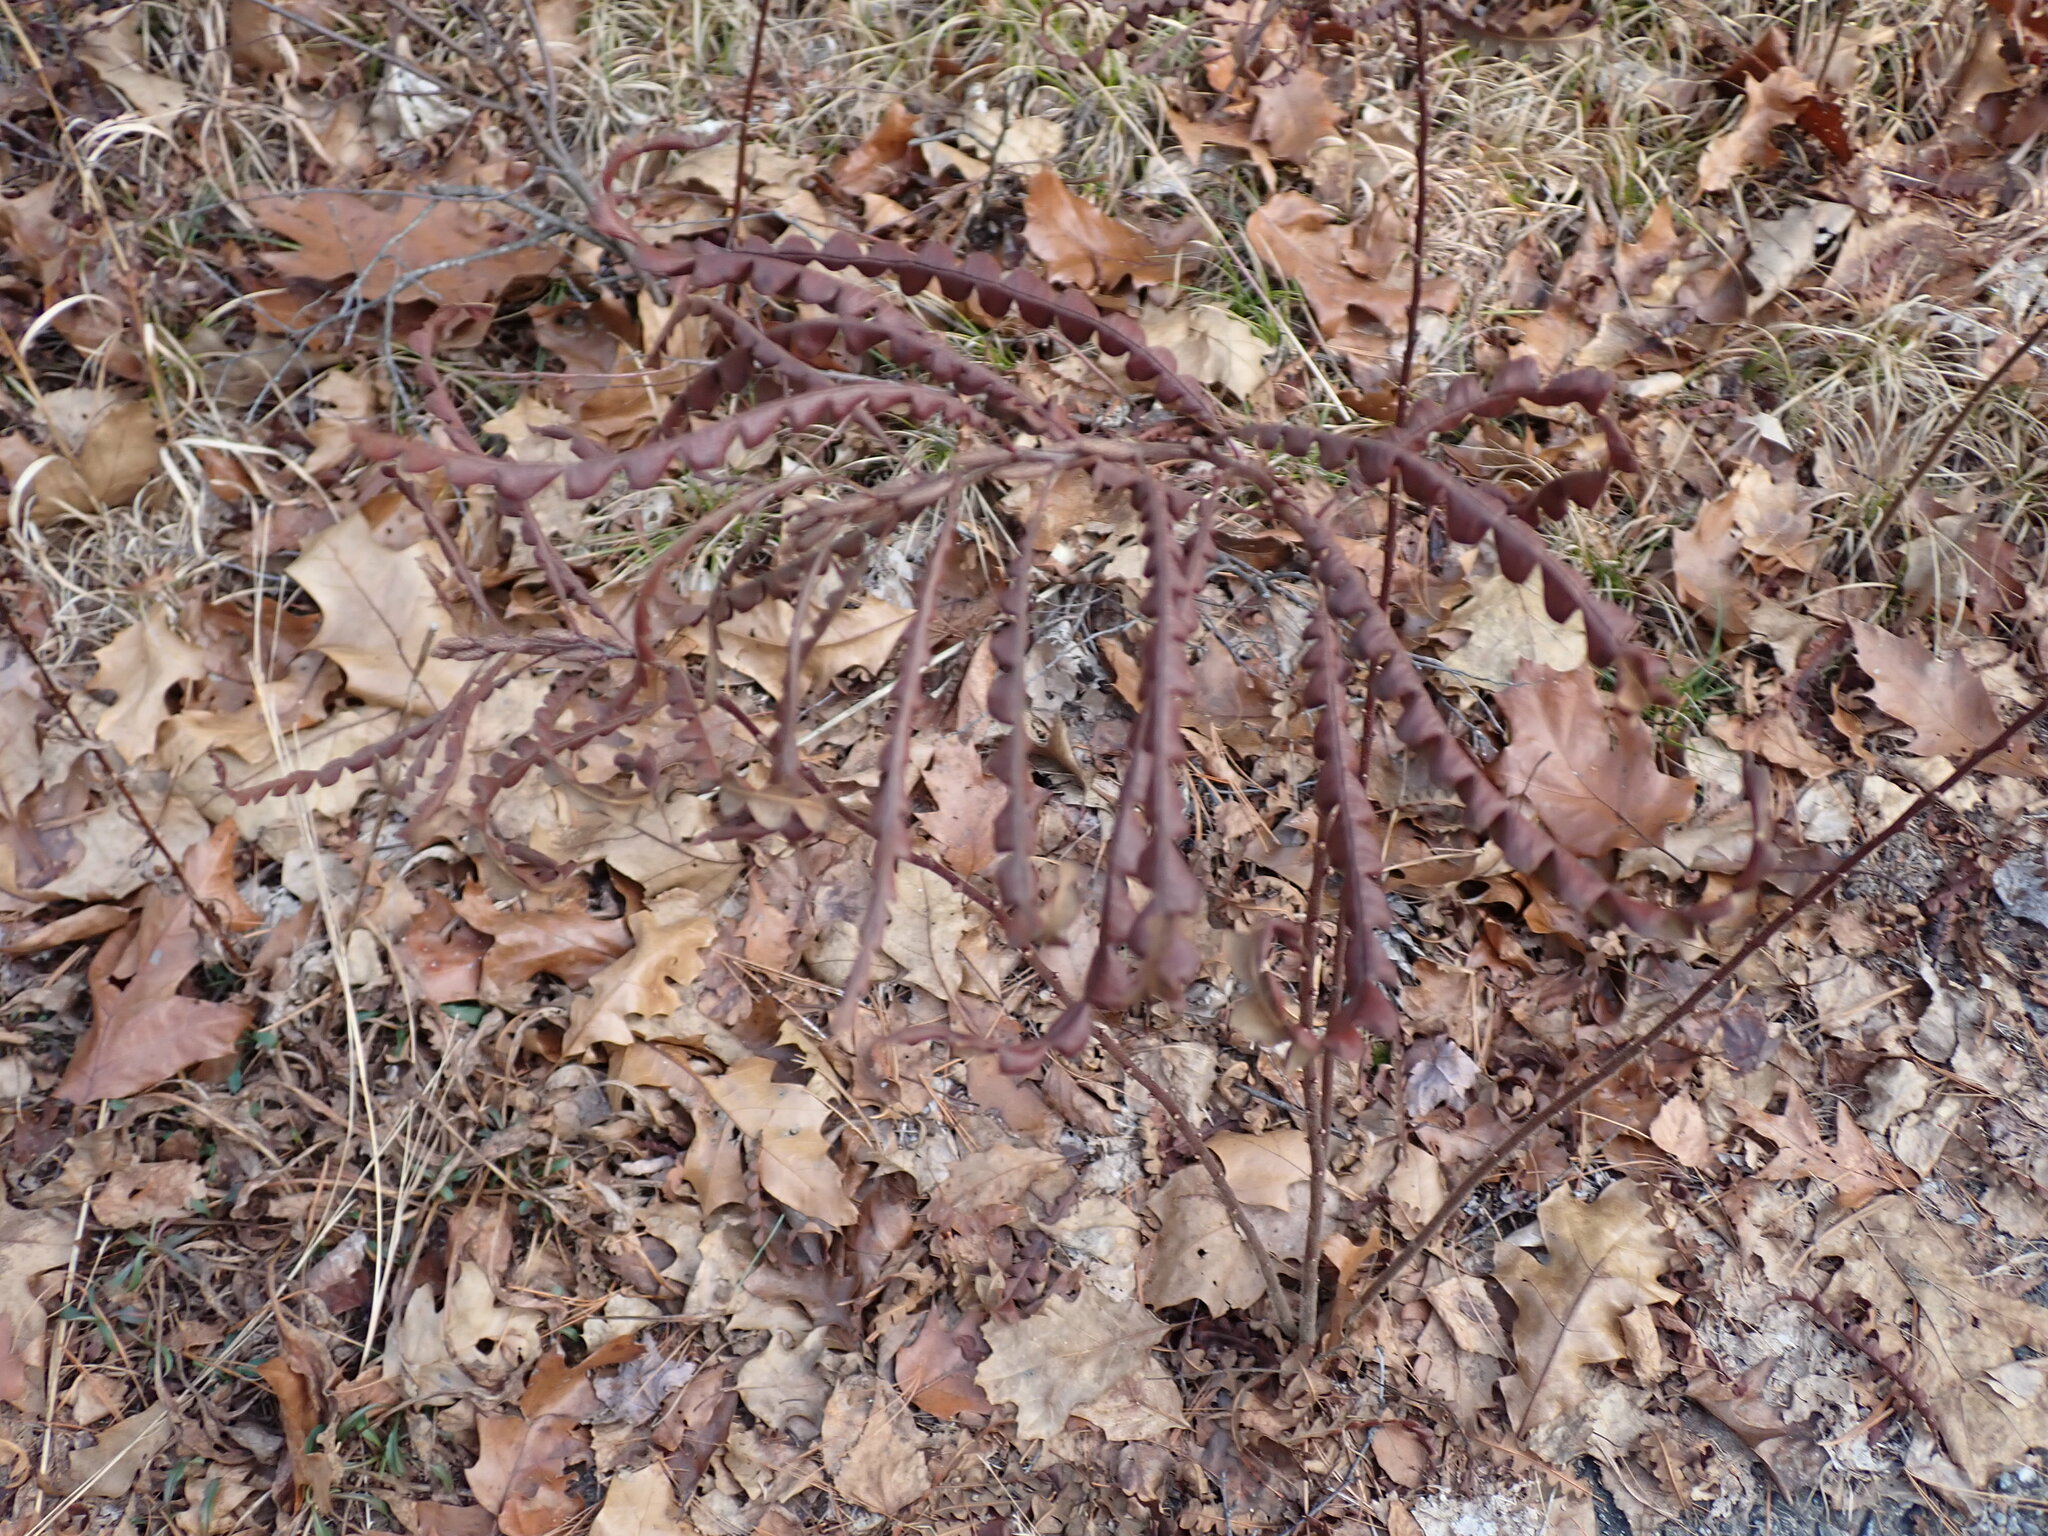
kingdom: Plantae
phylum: Tracheophyta
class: Magnoliopsida
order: Fagales
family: Myricaceae
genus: Comptonia
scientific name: Comptonia peregrina
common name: Sweet-fern
